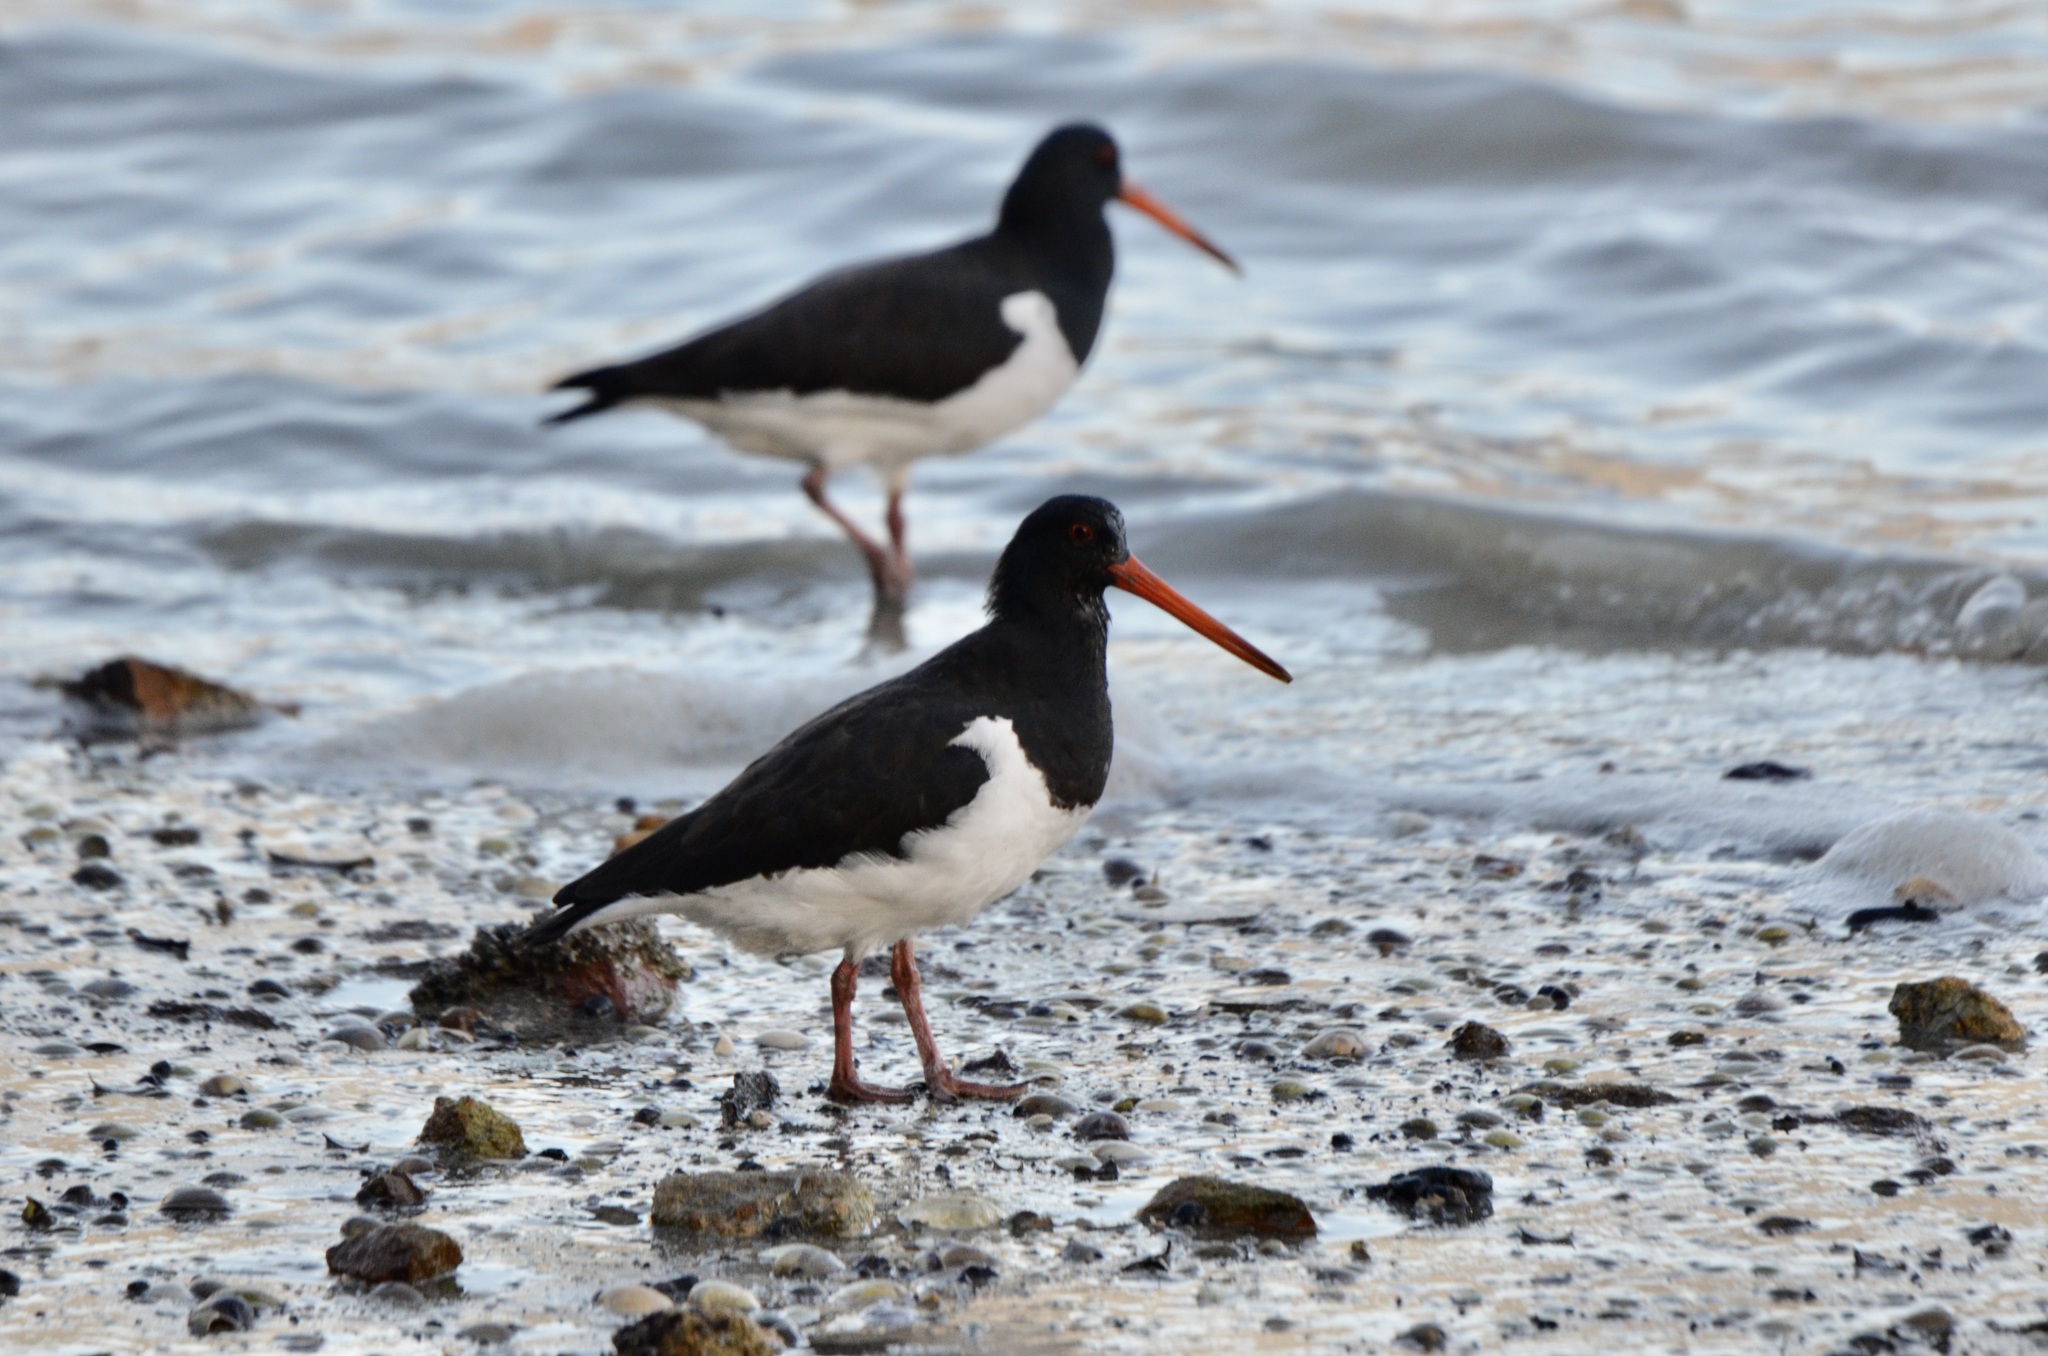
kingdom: Animalia
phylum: Chordata
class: Aves
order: Charadriiformes
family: Haematopodidae
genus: Haematopus
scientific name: Haematopus finschi
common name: South island oystercatcher
